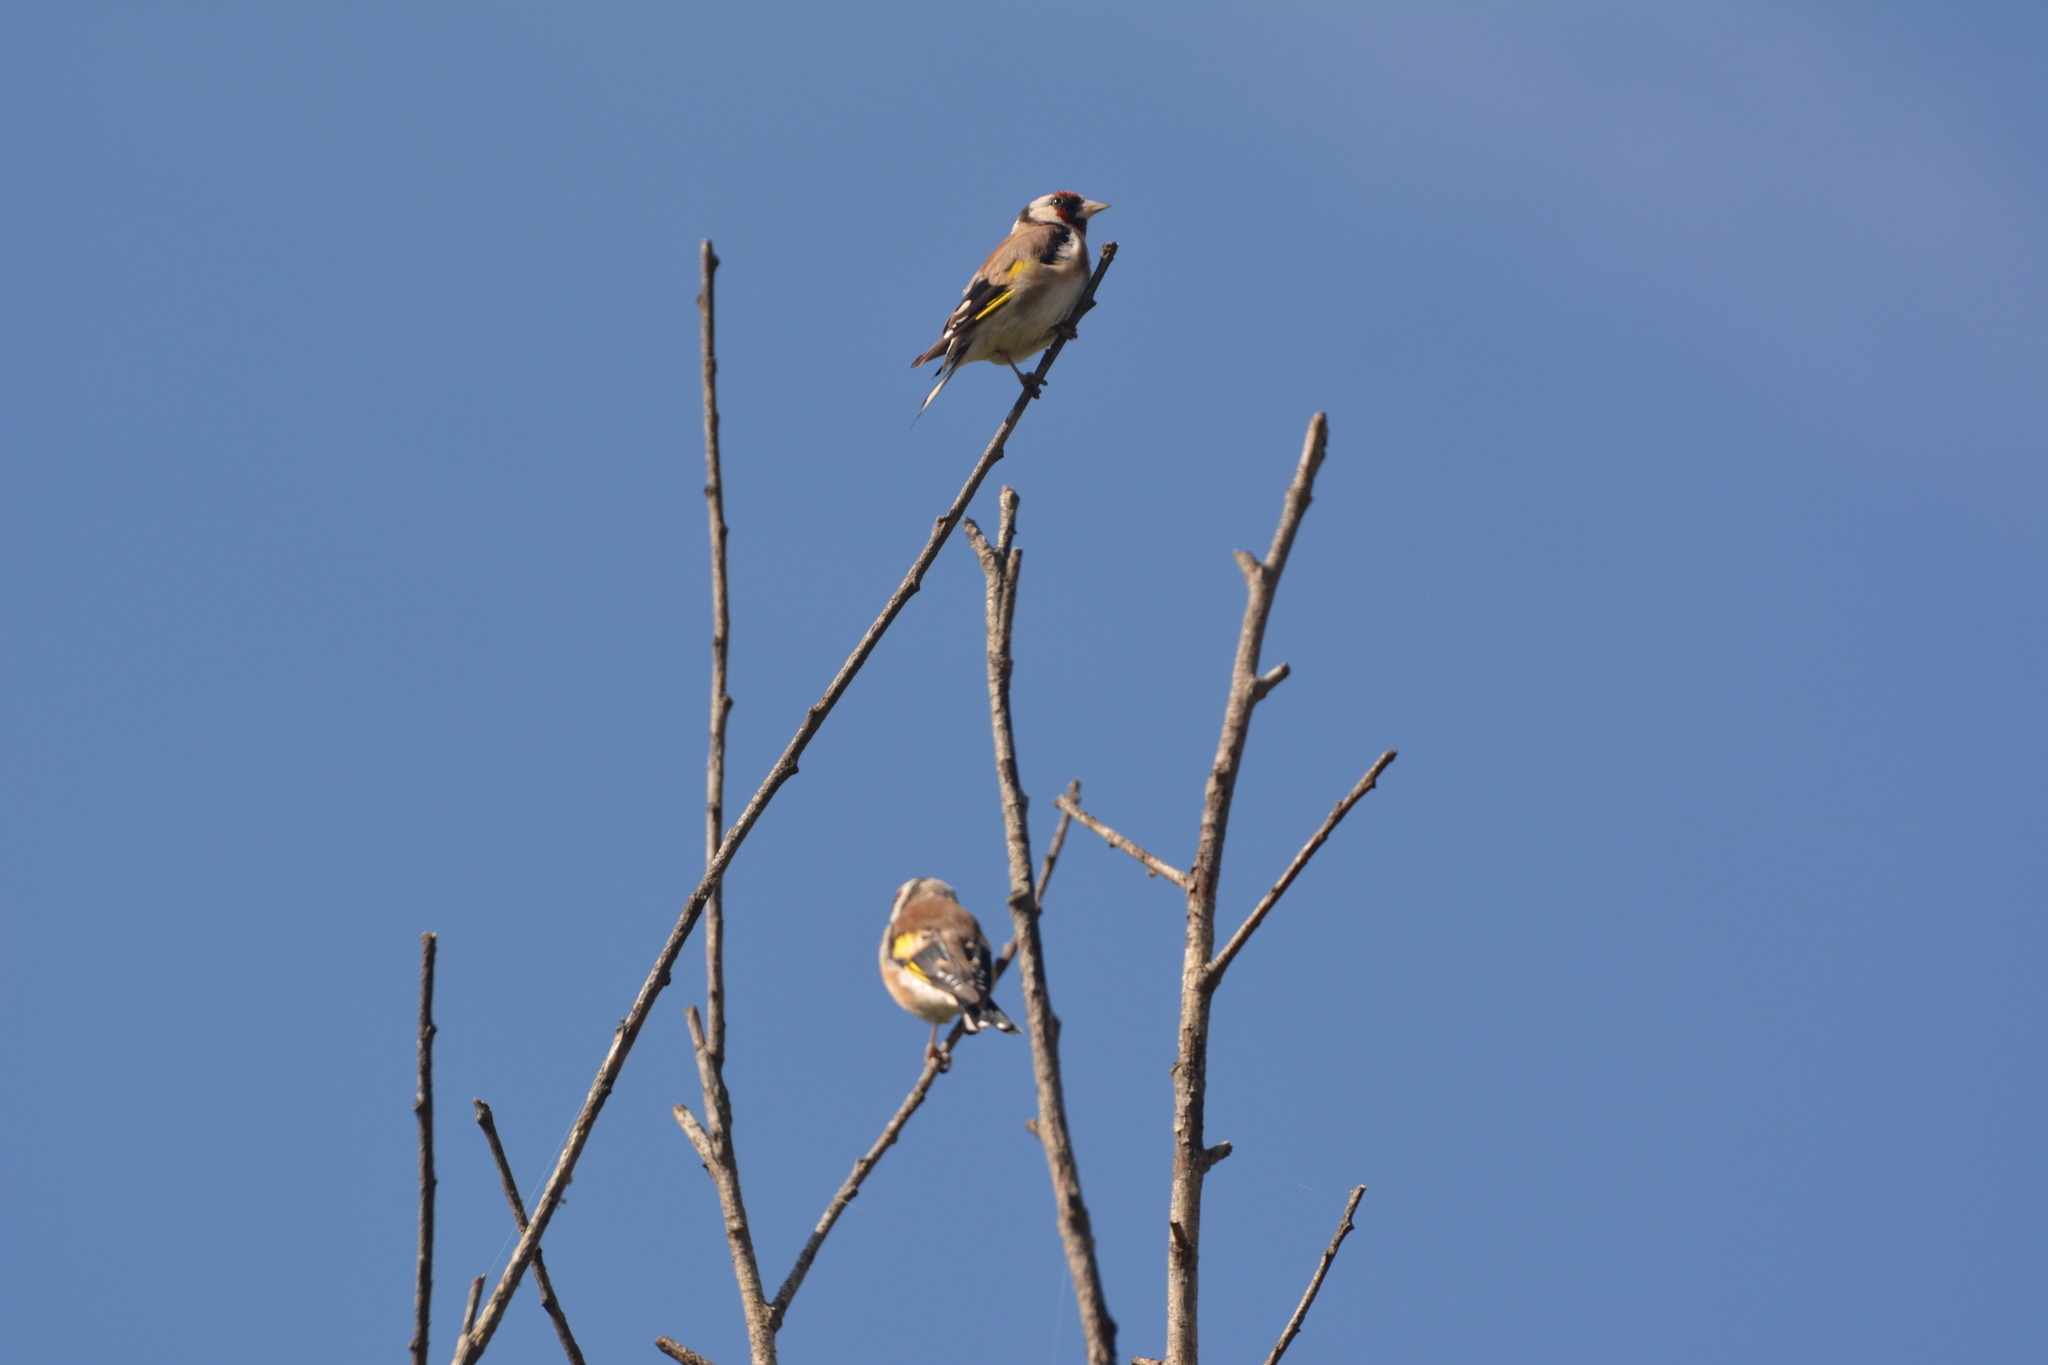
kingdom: Animalia
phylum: Chordata
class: Aves
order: Passeriformes
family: Fringillidae
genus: Carduelis
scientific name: Carduelis carduelis
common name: European goldfinch
